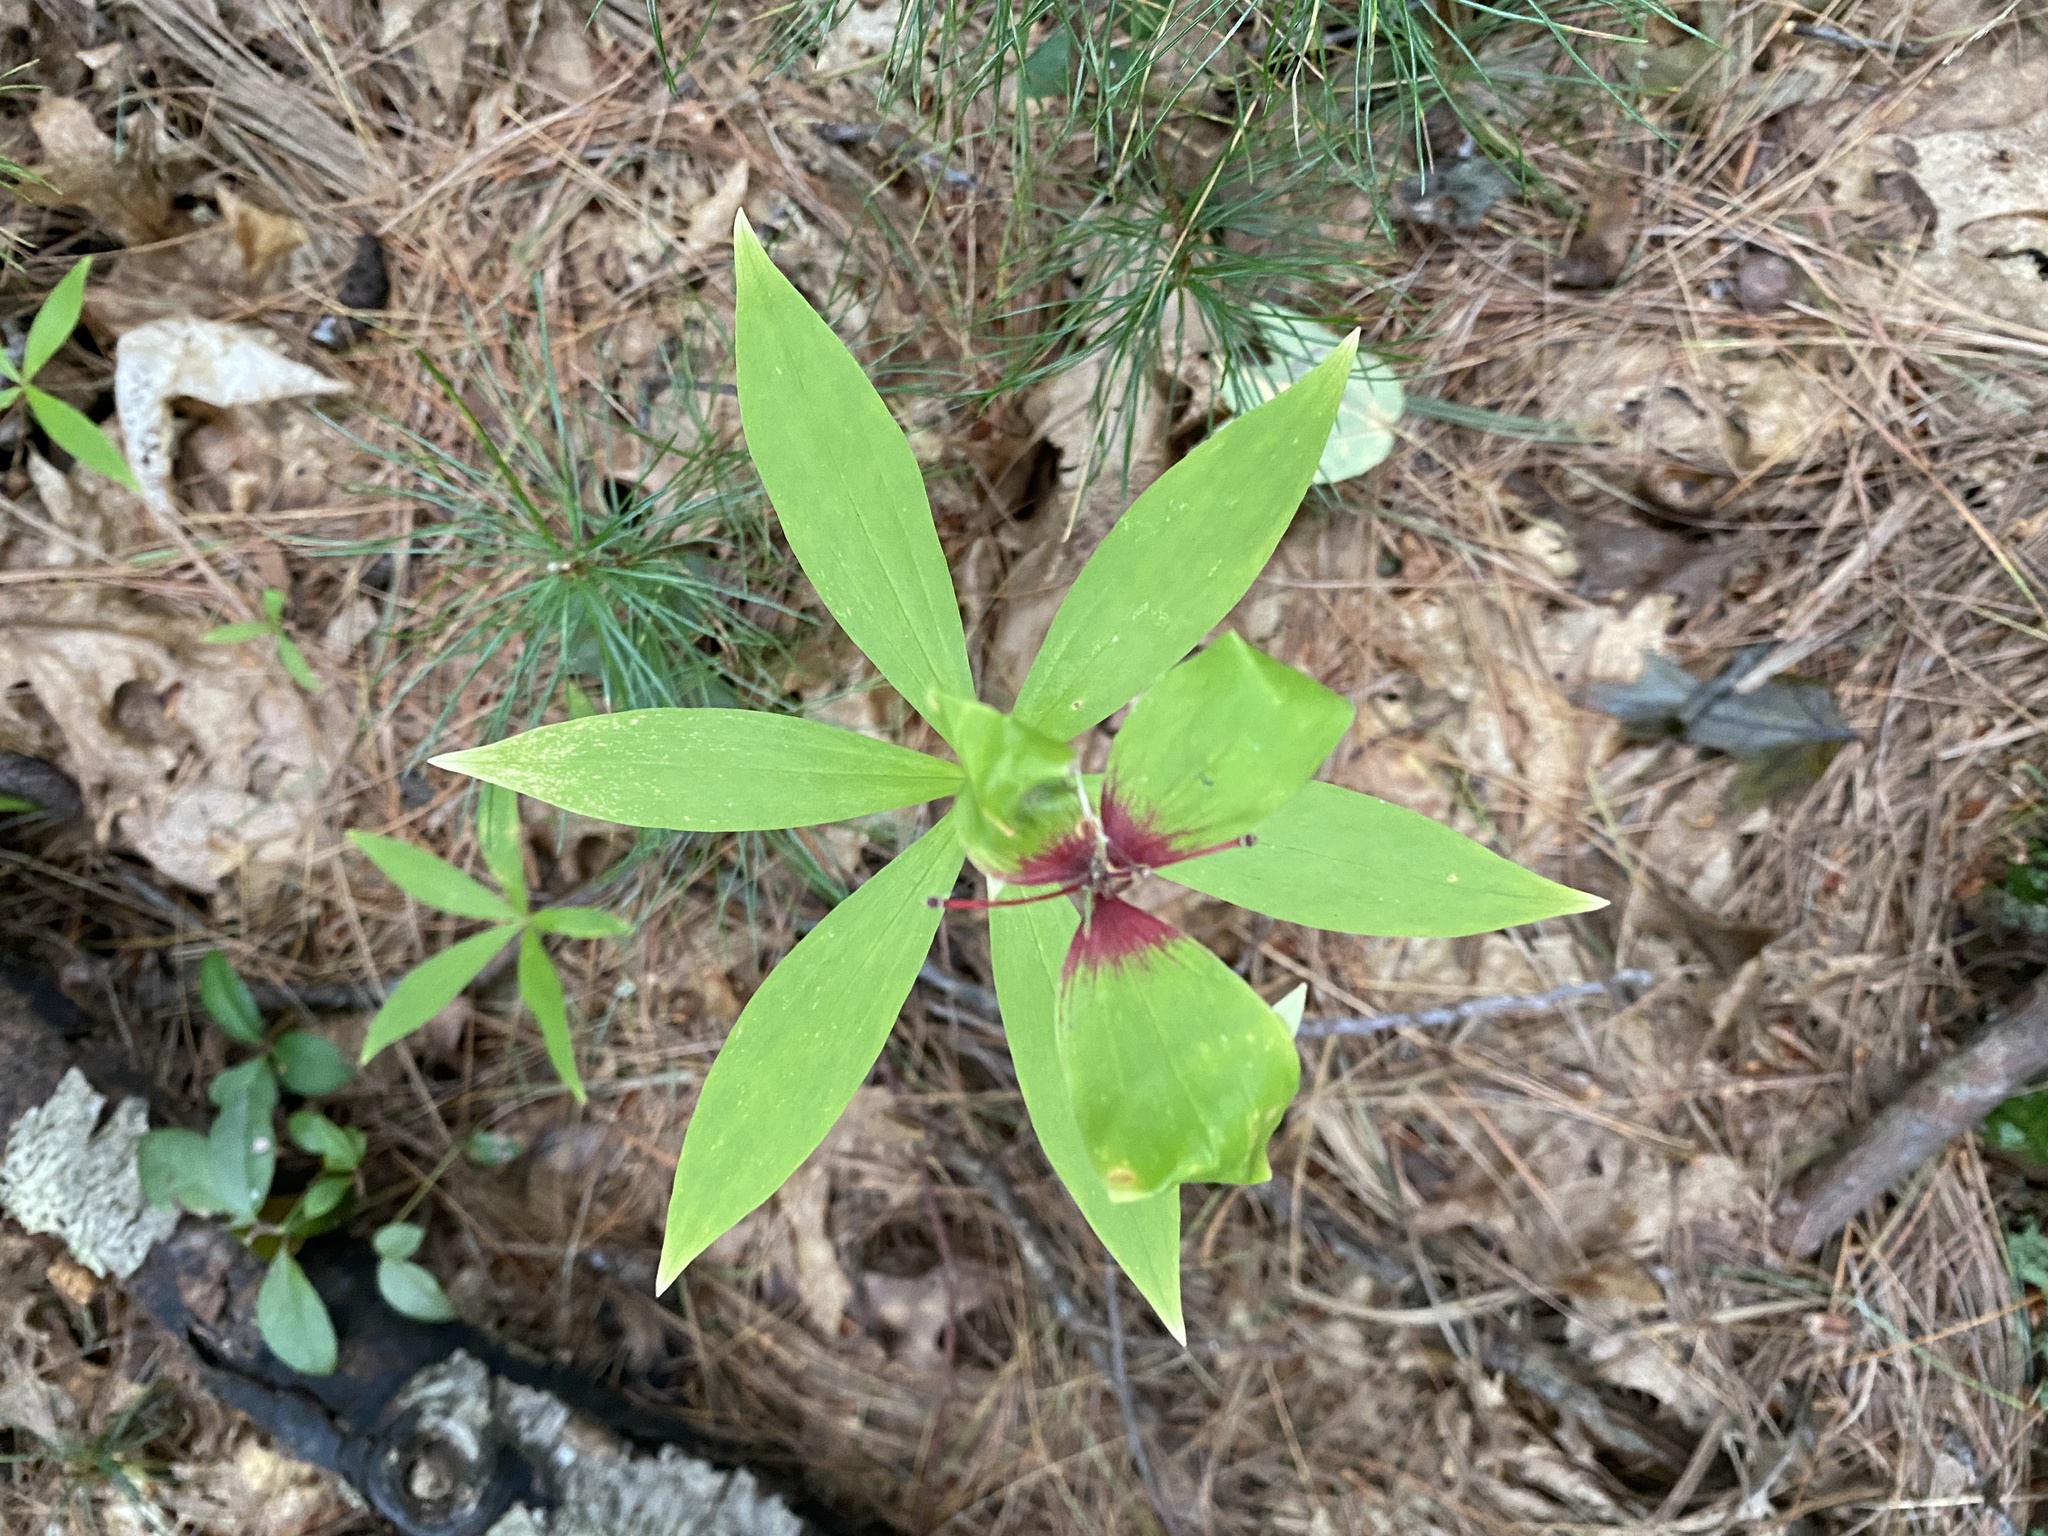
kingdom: Plantae
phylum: Tracheophyta
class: Liliopsida
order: Liliales
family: Liliaceae
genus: Medeola
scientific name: Medeola virginiana
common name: Indian cucumber-root
